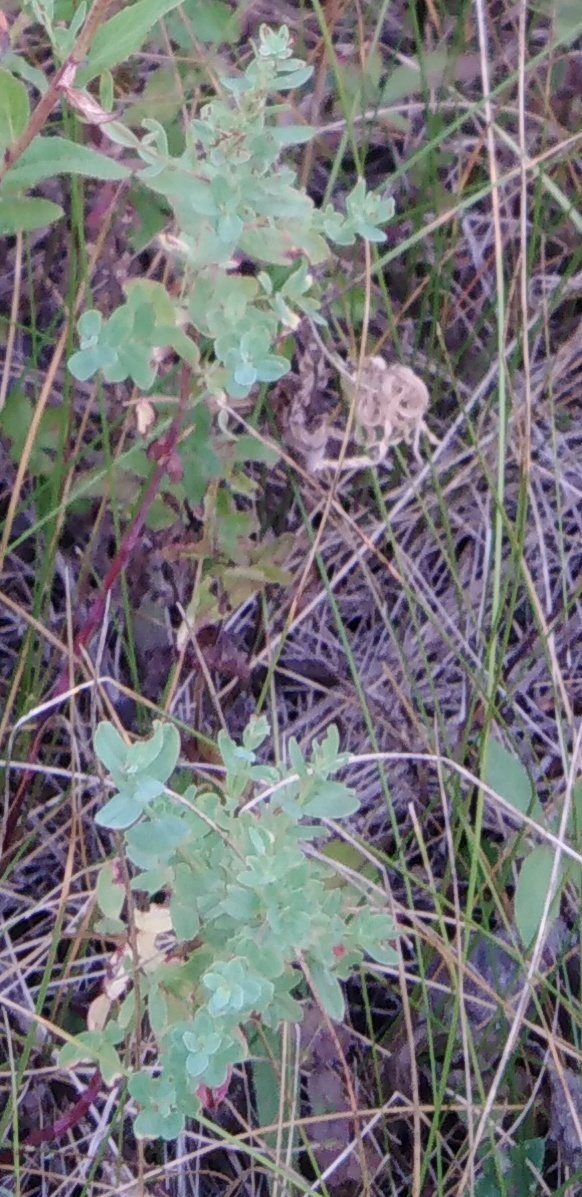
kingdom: Plantae
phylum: Tracheophyta
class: Magnoliopsida
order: Malpighiales
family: Hypericaceae
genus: Hypericum
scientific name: Hypericum perforatum
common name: Common st. johnswort
